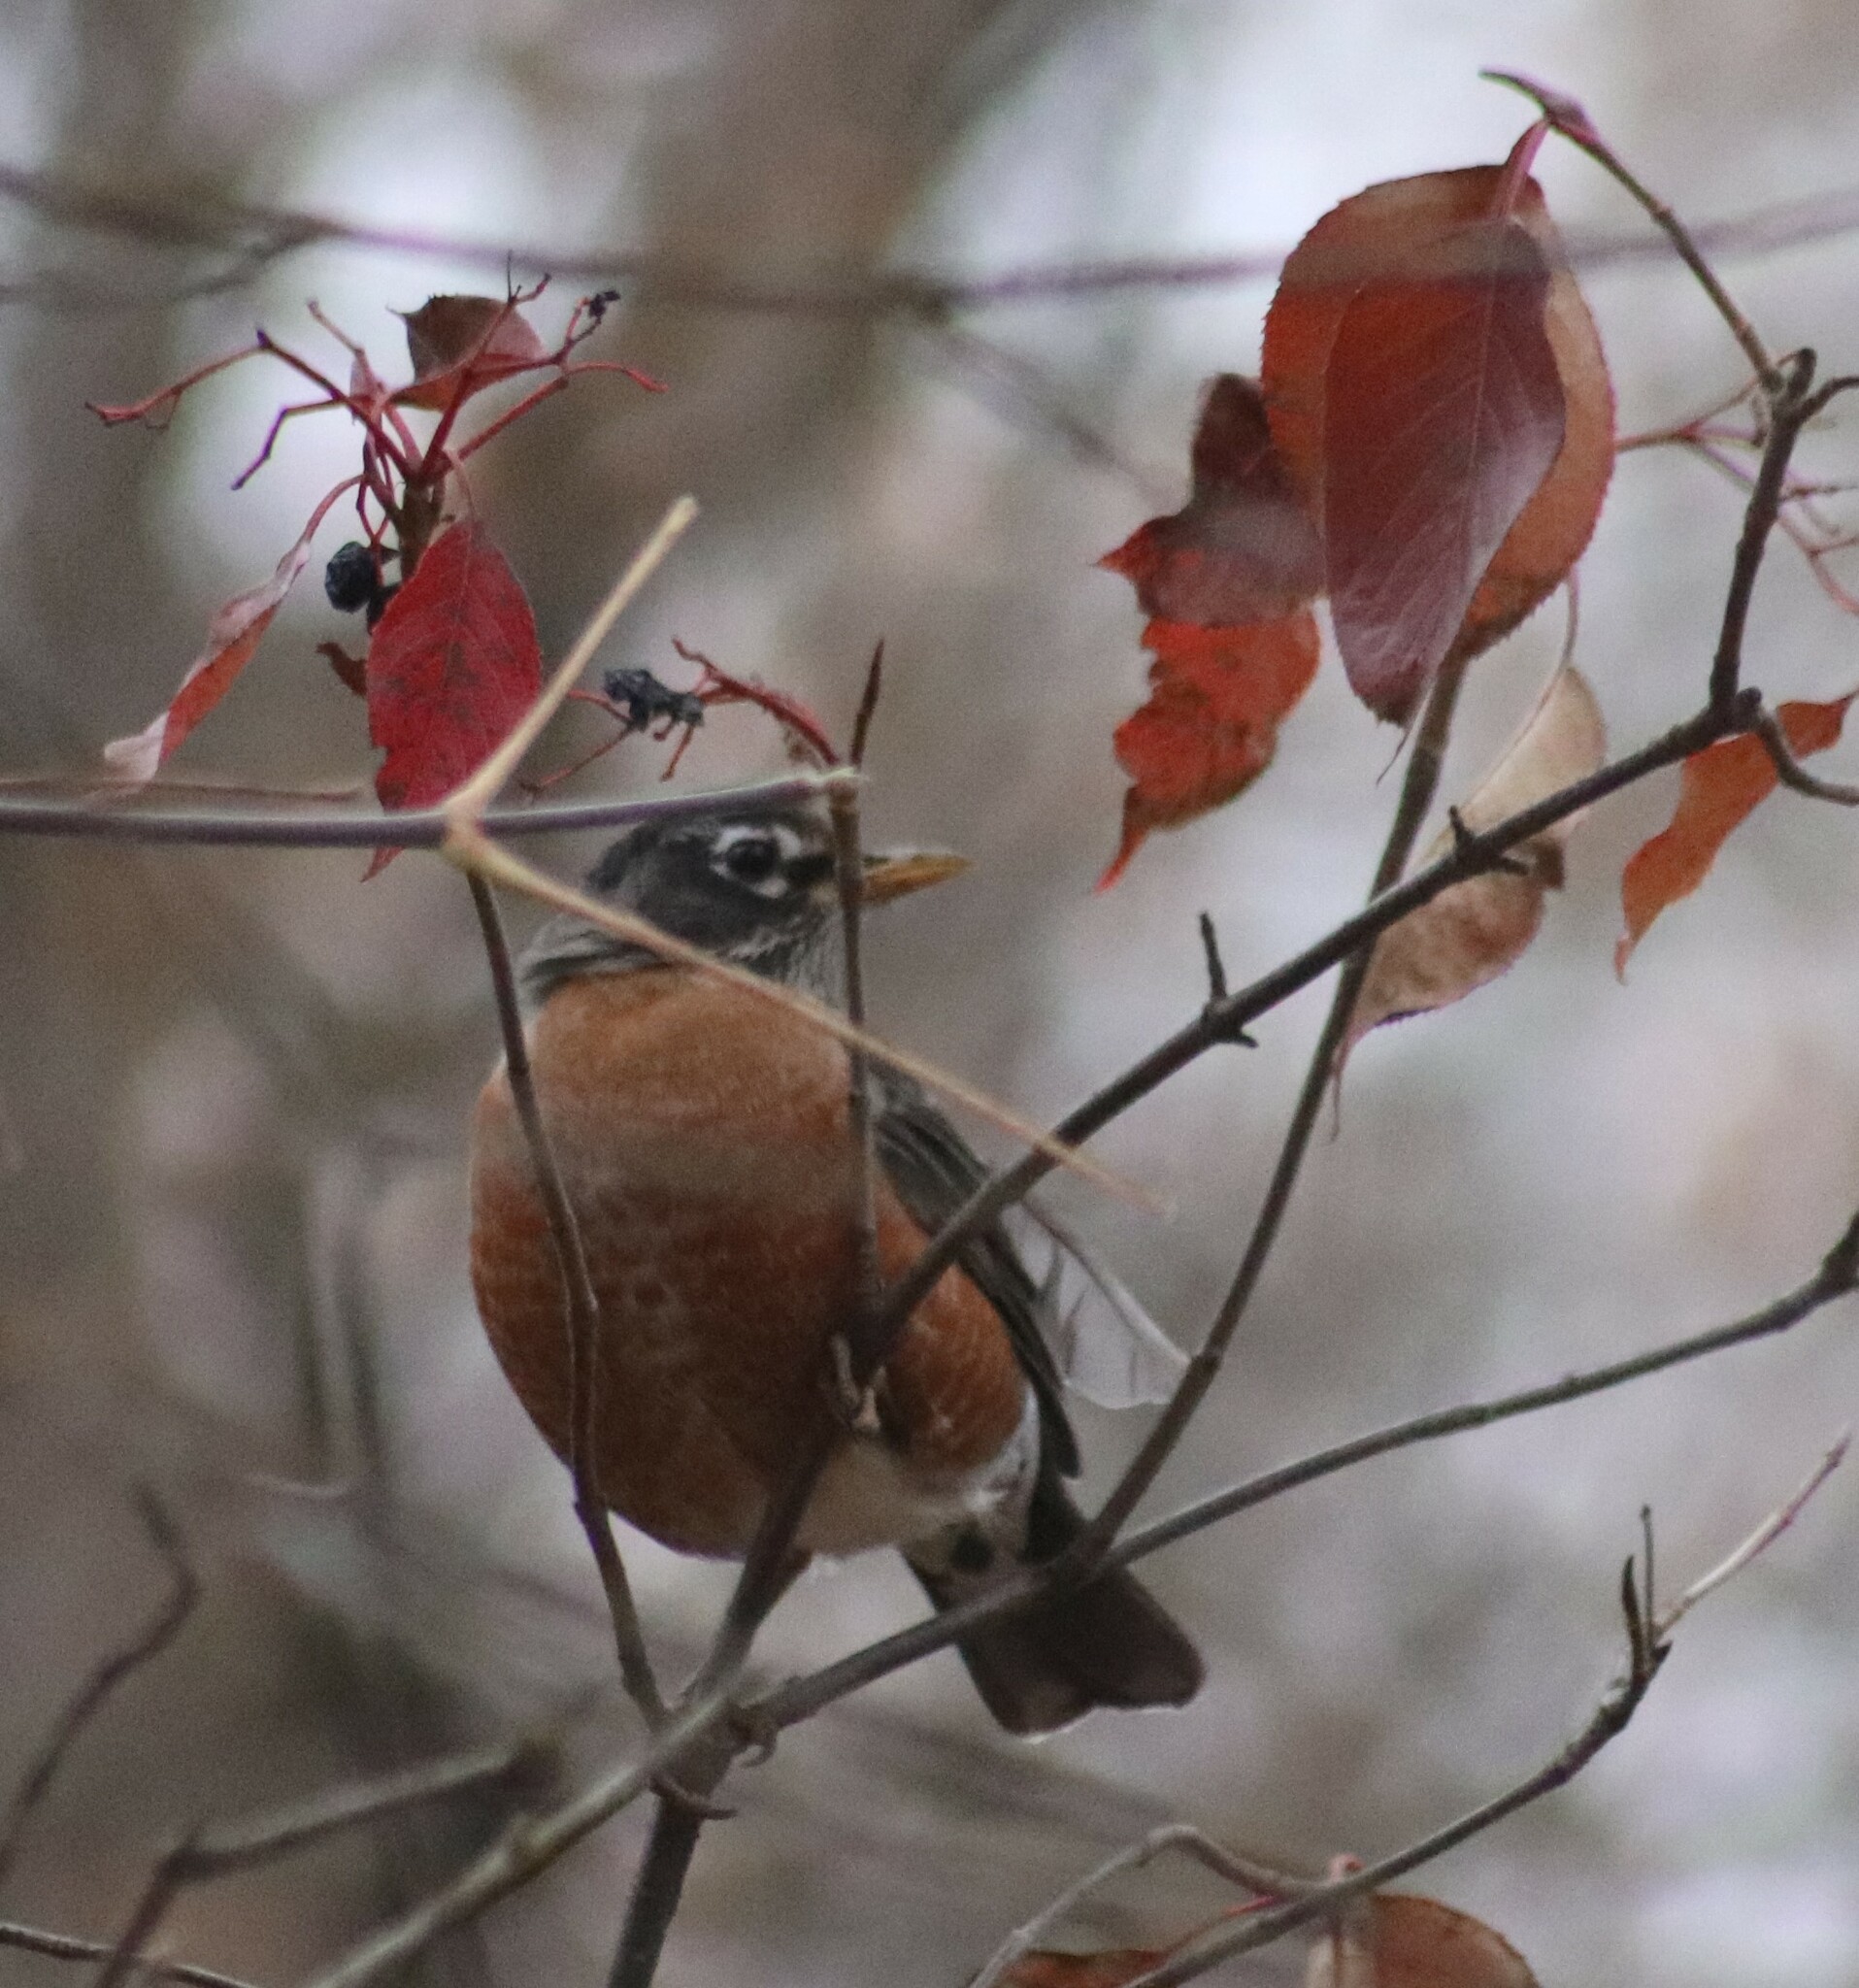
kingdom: Animalia
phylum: Chordata
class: Aves
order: Passeriformes
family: Turdidae
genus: Turdus
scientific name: Turdus migratorius
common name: American robin
